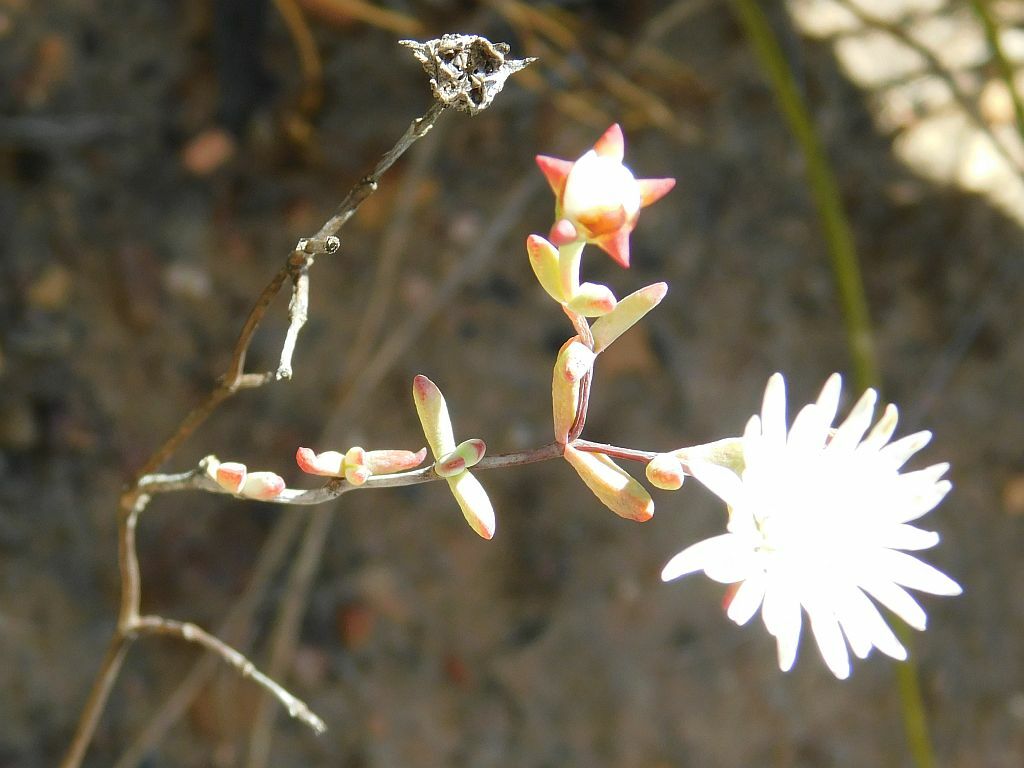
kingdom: Plantae
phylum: Tracheophyta
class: Magnoliopsida
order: Caryophyllales
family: Aizoaceae
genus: Lampranthus
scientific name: Lampranthus falcatus
